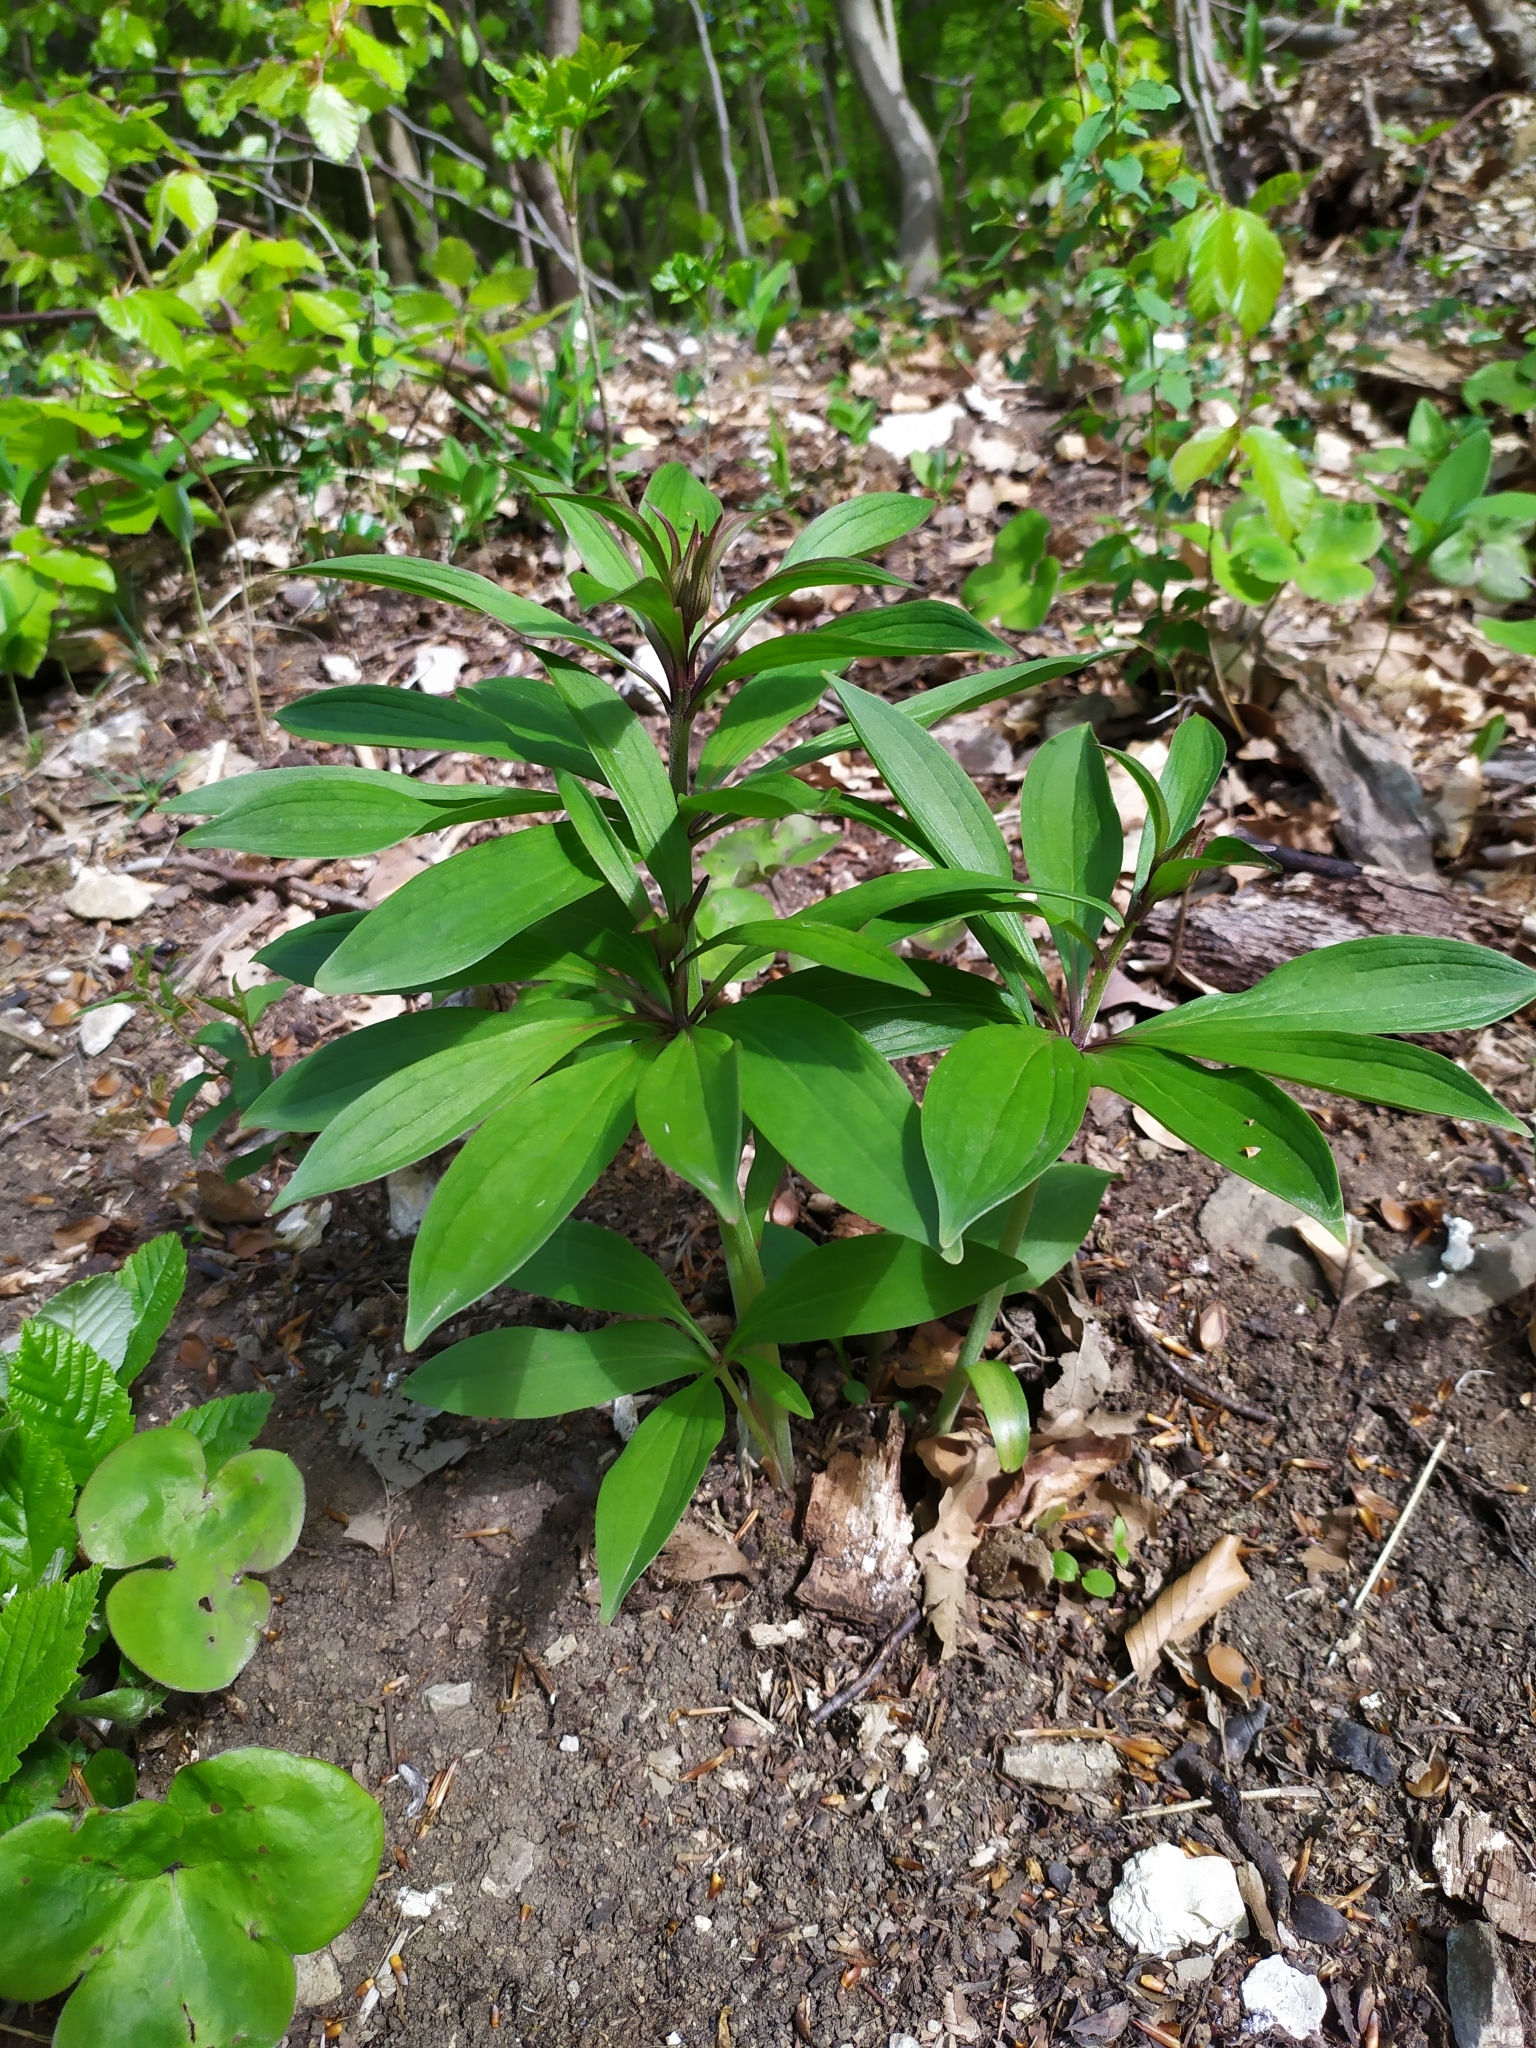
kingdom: Plantae
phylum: Tracheophyta
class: Liliopsida
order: Liliales
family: Liliaceae
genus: Lilium
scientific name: Lilium martagon
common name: Martagon lily
